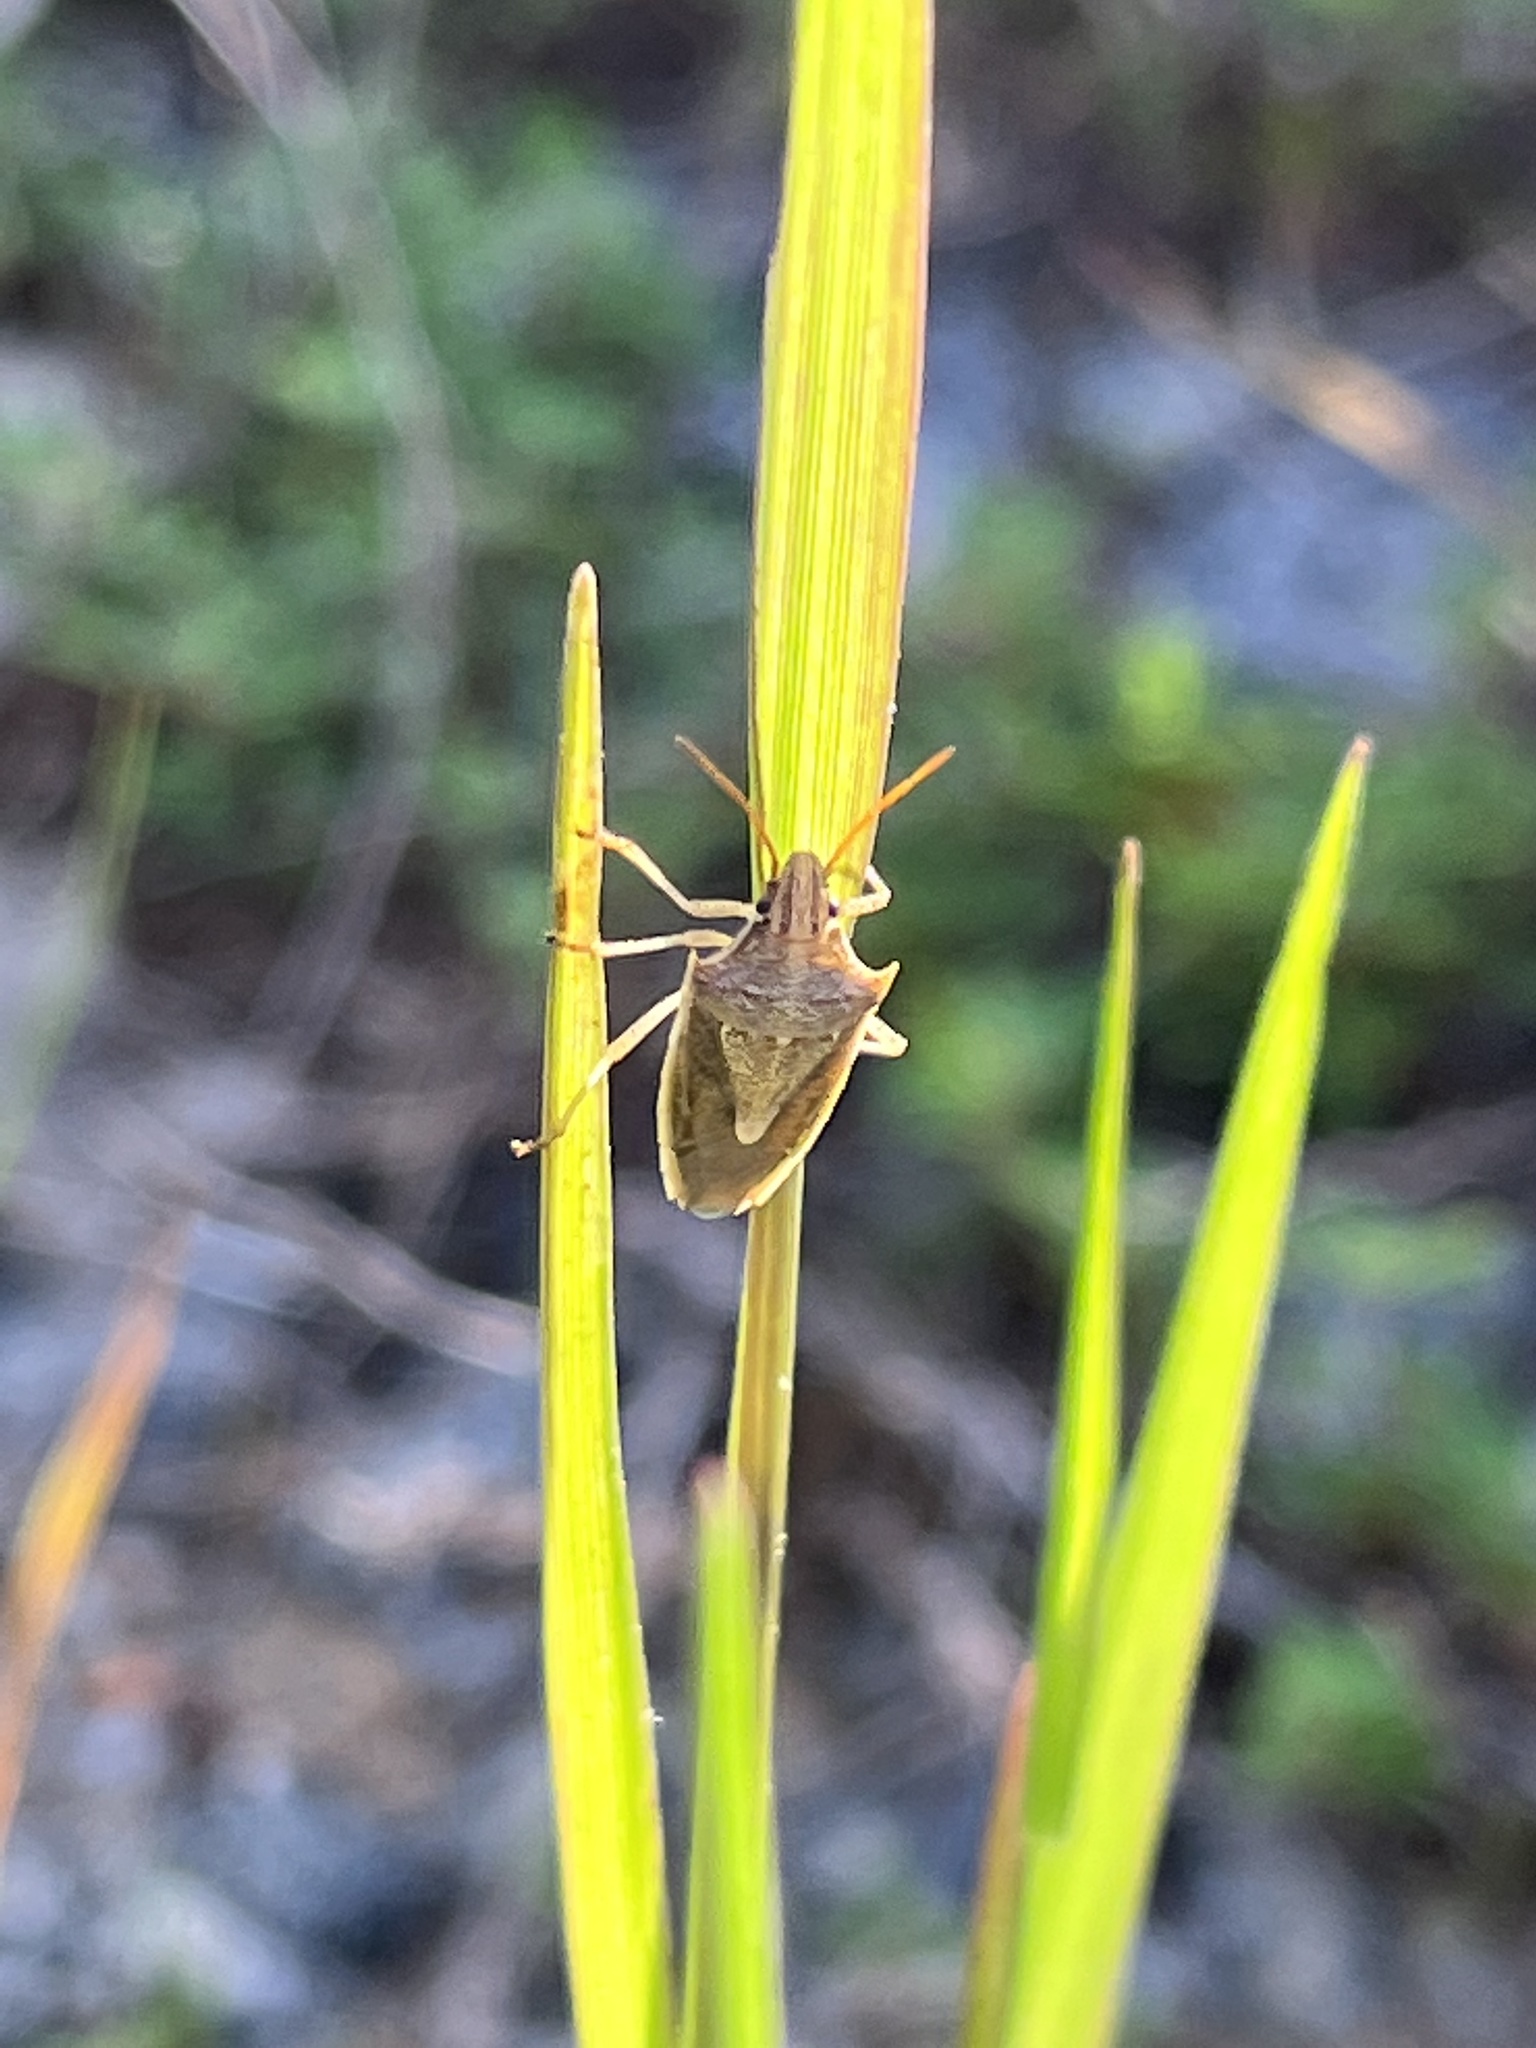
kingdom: Animalia
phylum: Arthropoda
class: Insecta
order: Hemiptera
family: Pentatomidae
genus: Oebalus
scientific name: Oebalus pugnax
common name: Rice stink bug
